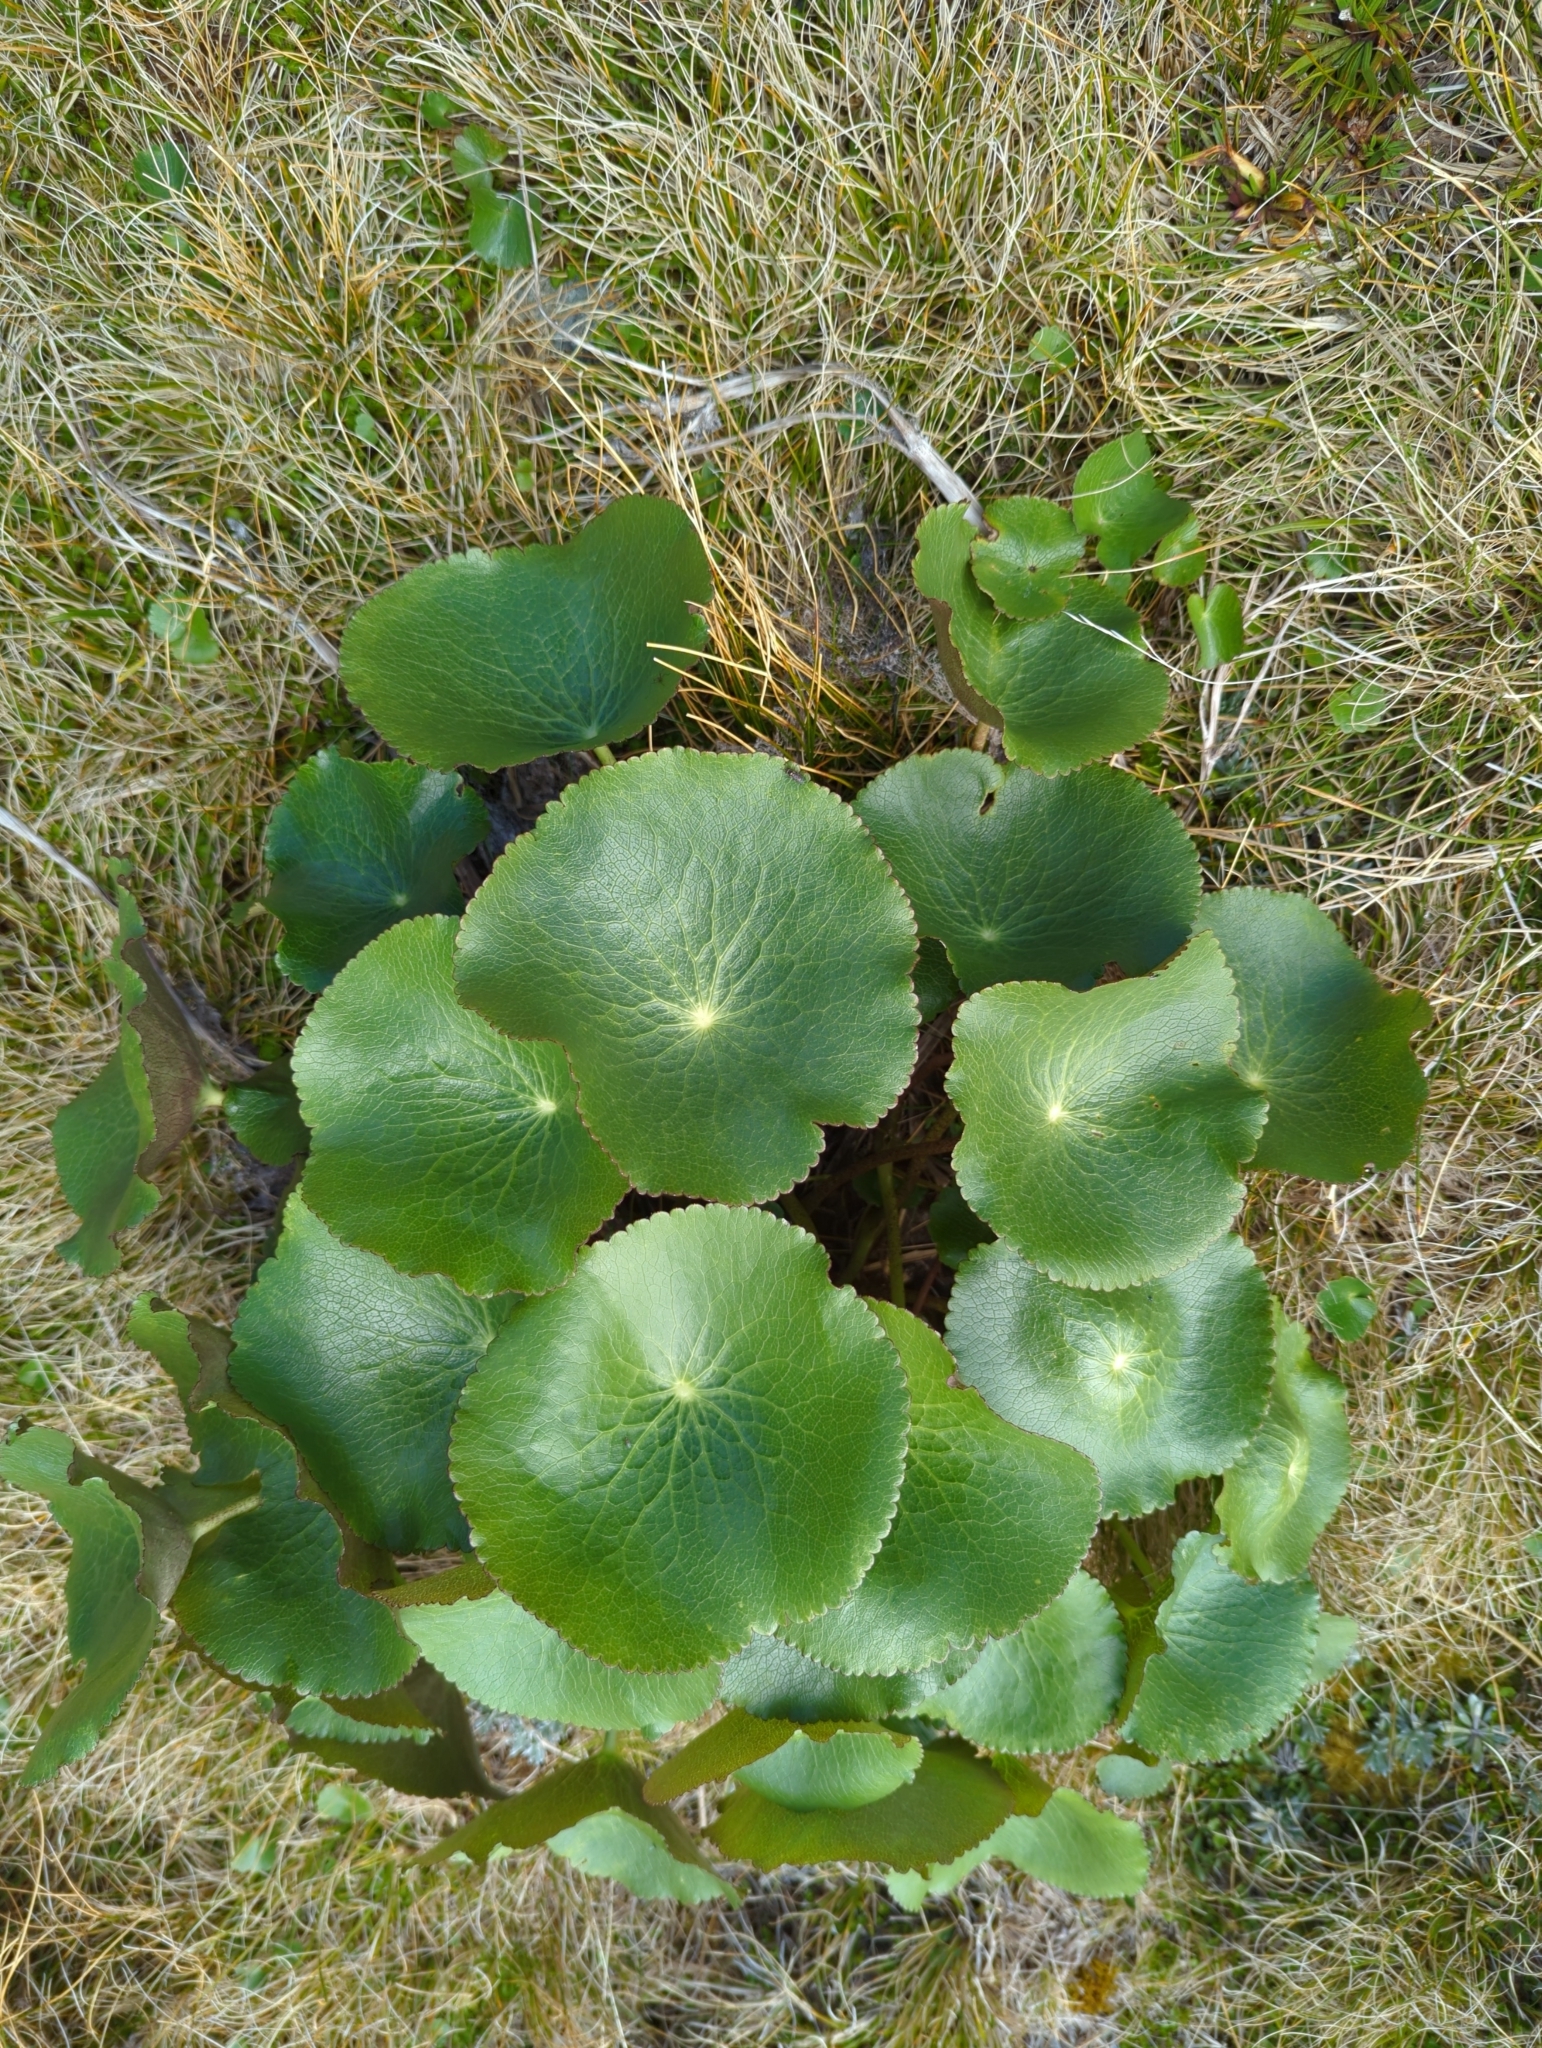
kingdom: Plantae
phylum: Tracheophyta
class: Magnoliopsida
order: Ranunculales
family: Ranunculaceae
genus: Ranunculus
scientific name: Ranunculus lyallii
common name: Mountain-lily
